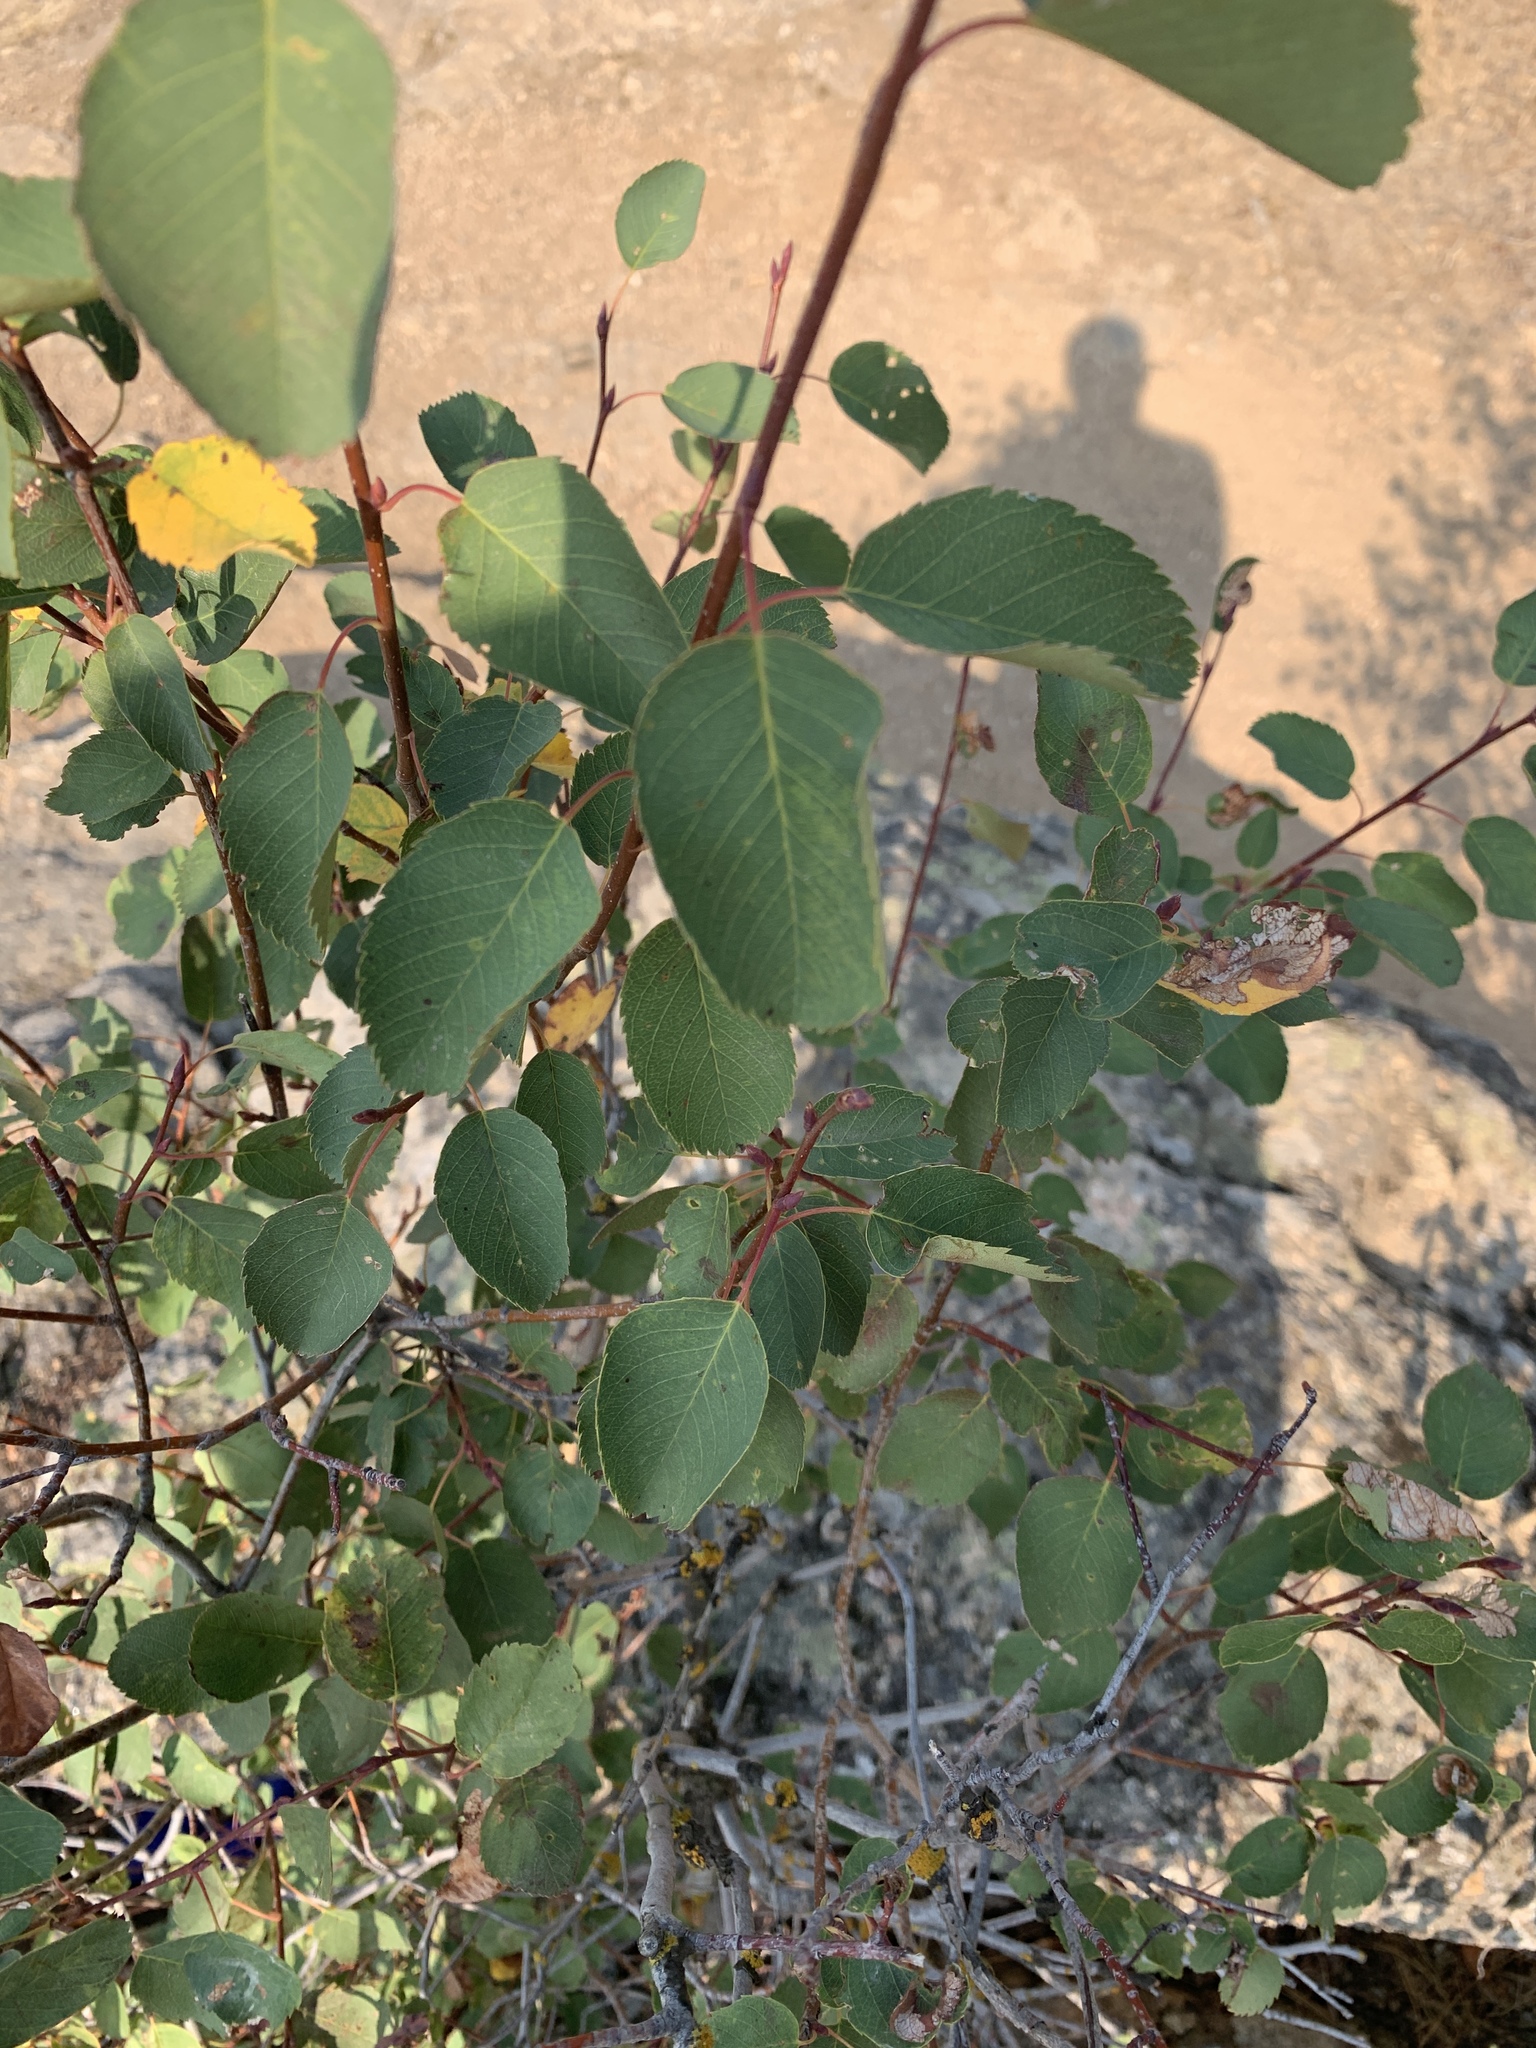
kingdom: Plantae
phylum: Tracheophyta
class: Magnoliopsida
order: Rosales
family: Rosaceae
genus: Amelanchier
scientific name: Amelanchier alnifolia
